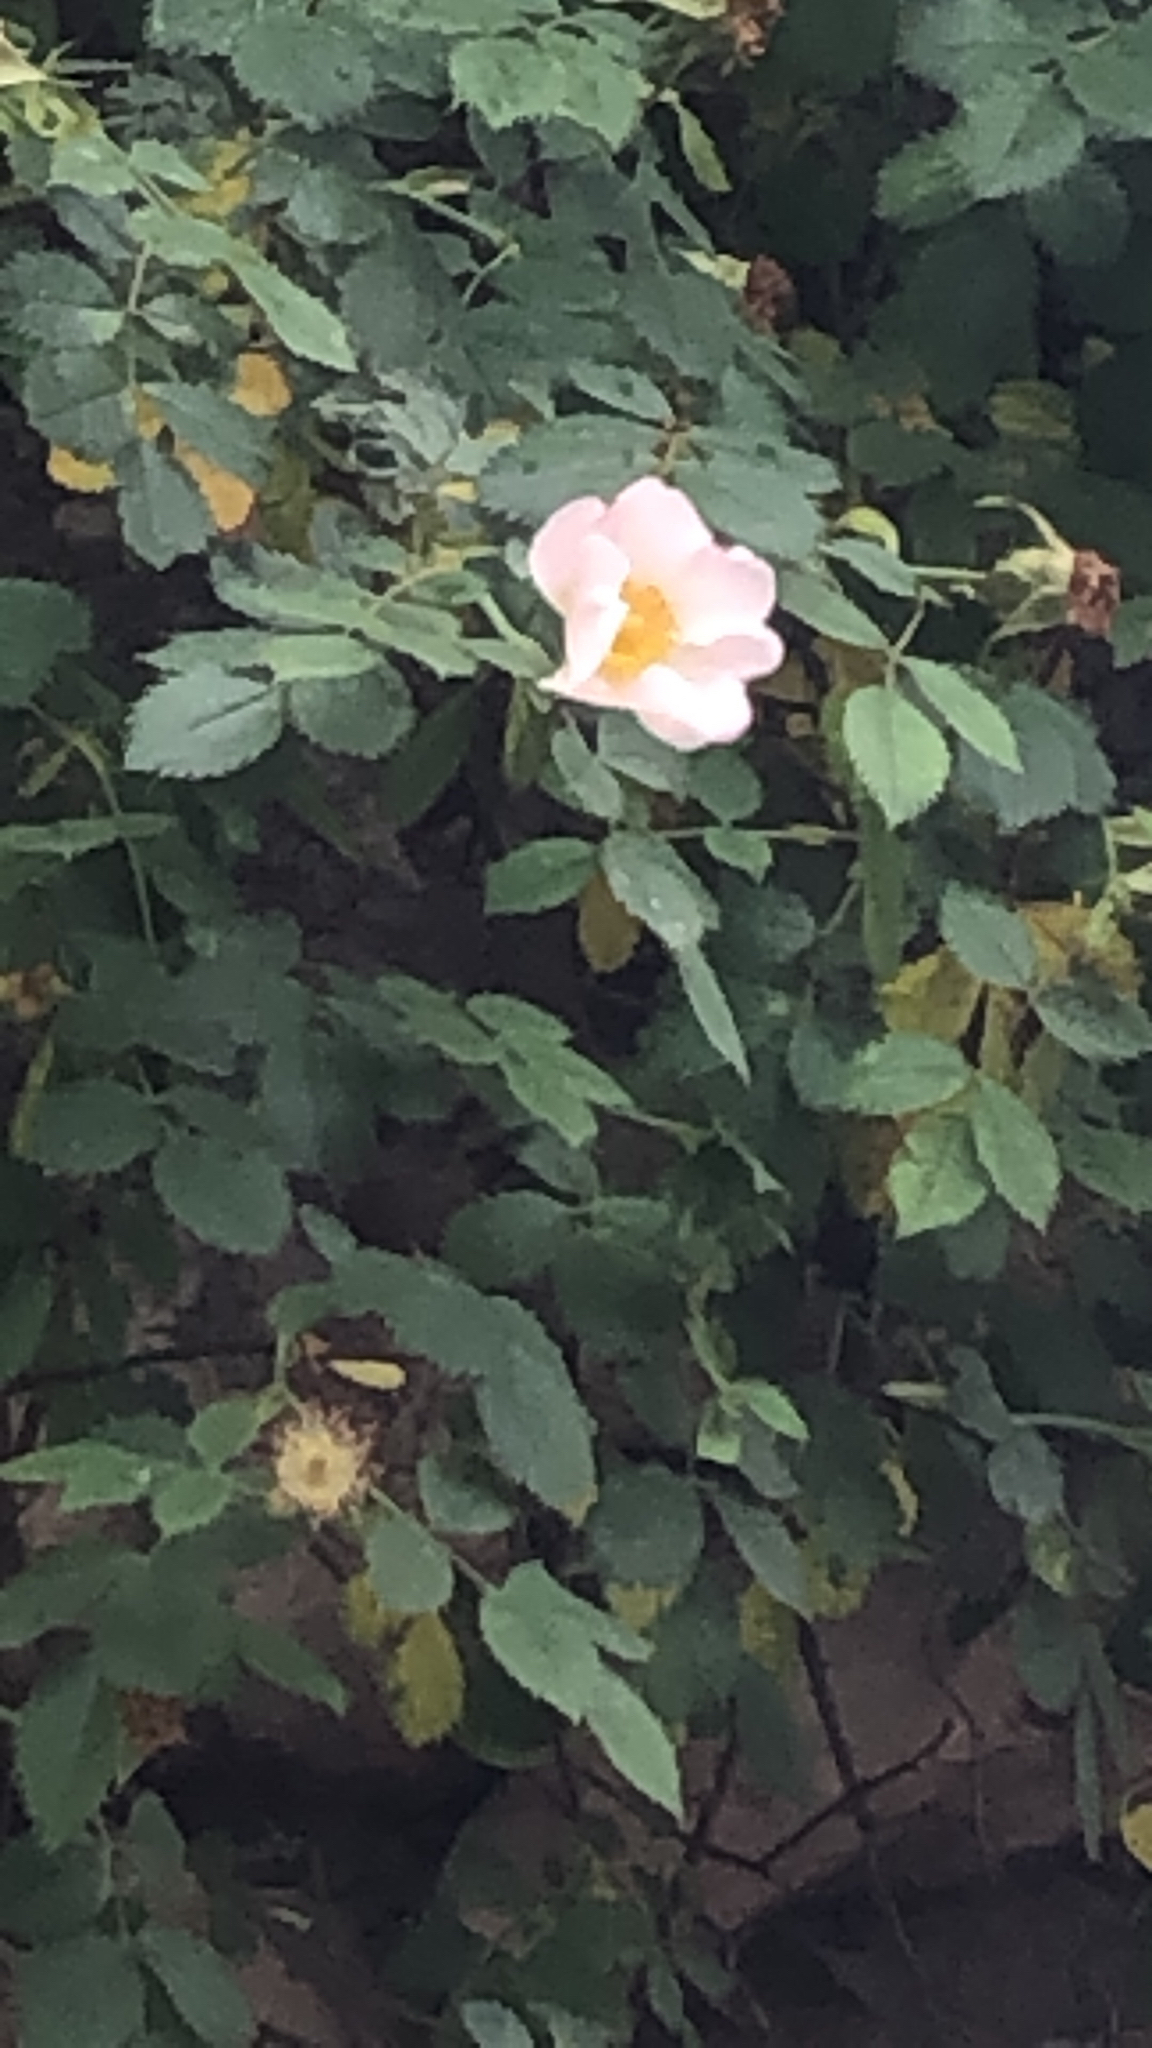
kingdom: Plantae
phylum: Tracheophyta
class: Magnoliopsida
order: Rosales
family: Rosaceae
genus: Rosa
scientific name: Rosa canina
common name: Dog rose
